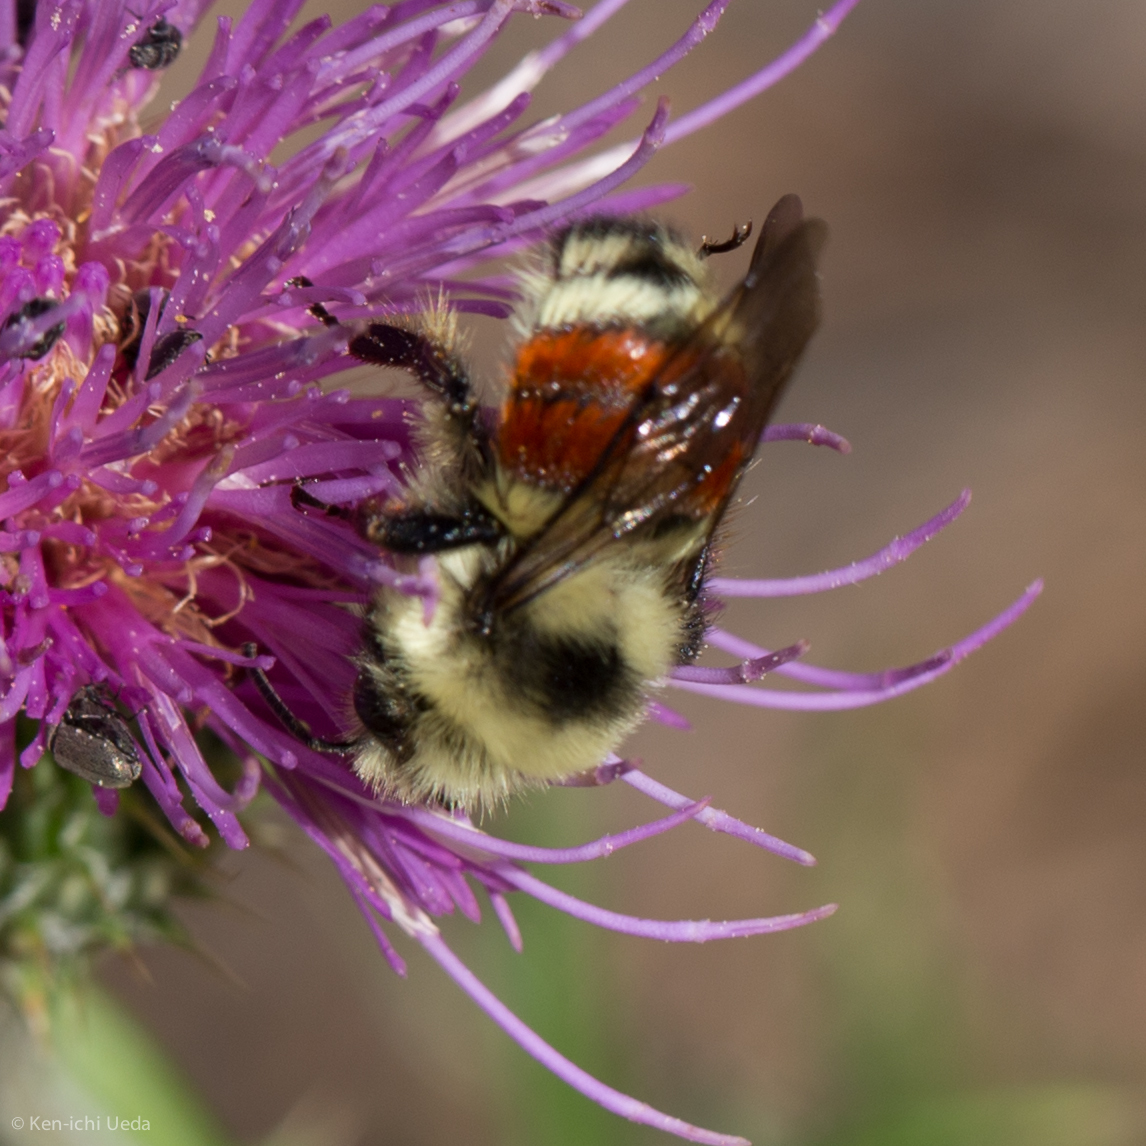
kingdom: Animalia
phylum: Arthropoda
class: Insecta
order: Hymenoptera
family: Apidae
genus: Bombus
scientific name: Bombus huntii
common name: Hunt bumble bee
